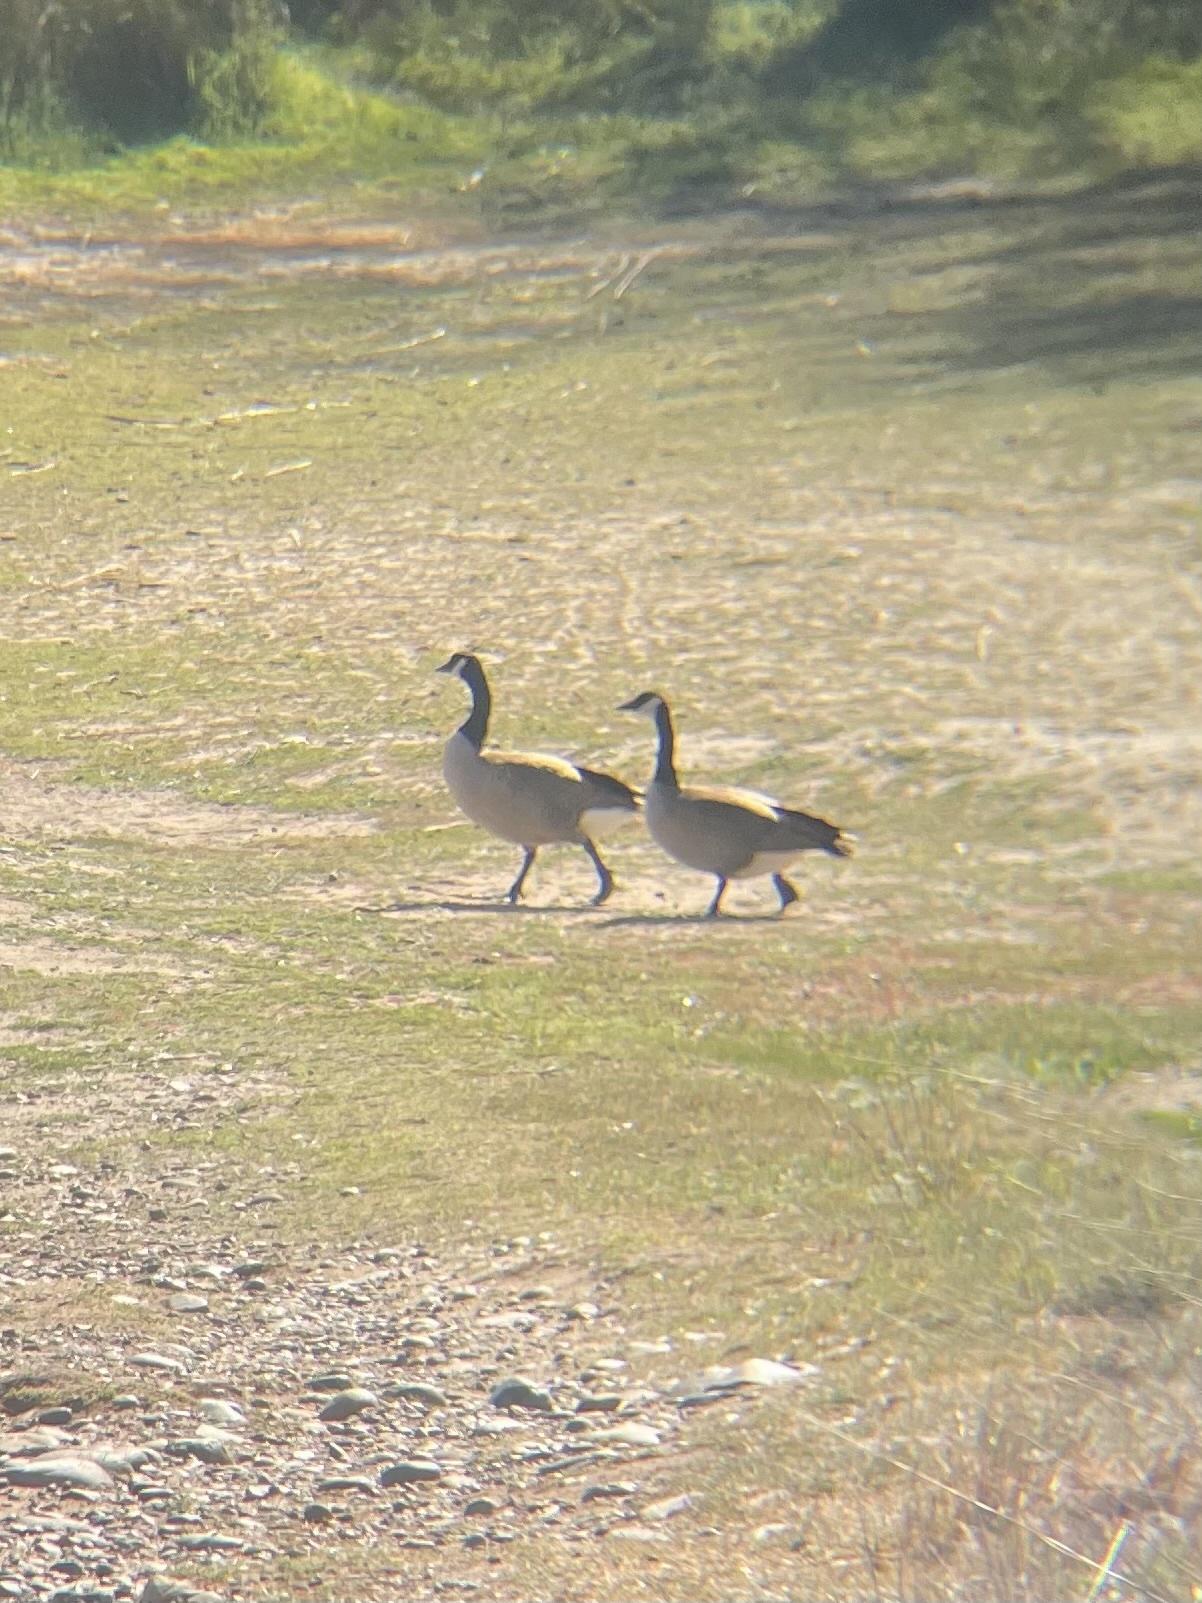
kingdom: Animalia
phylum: Chordata
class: Aves
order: Anseriformes
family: Anatidae
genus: Branta
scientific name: Branta canadensis
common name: Canada goose
